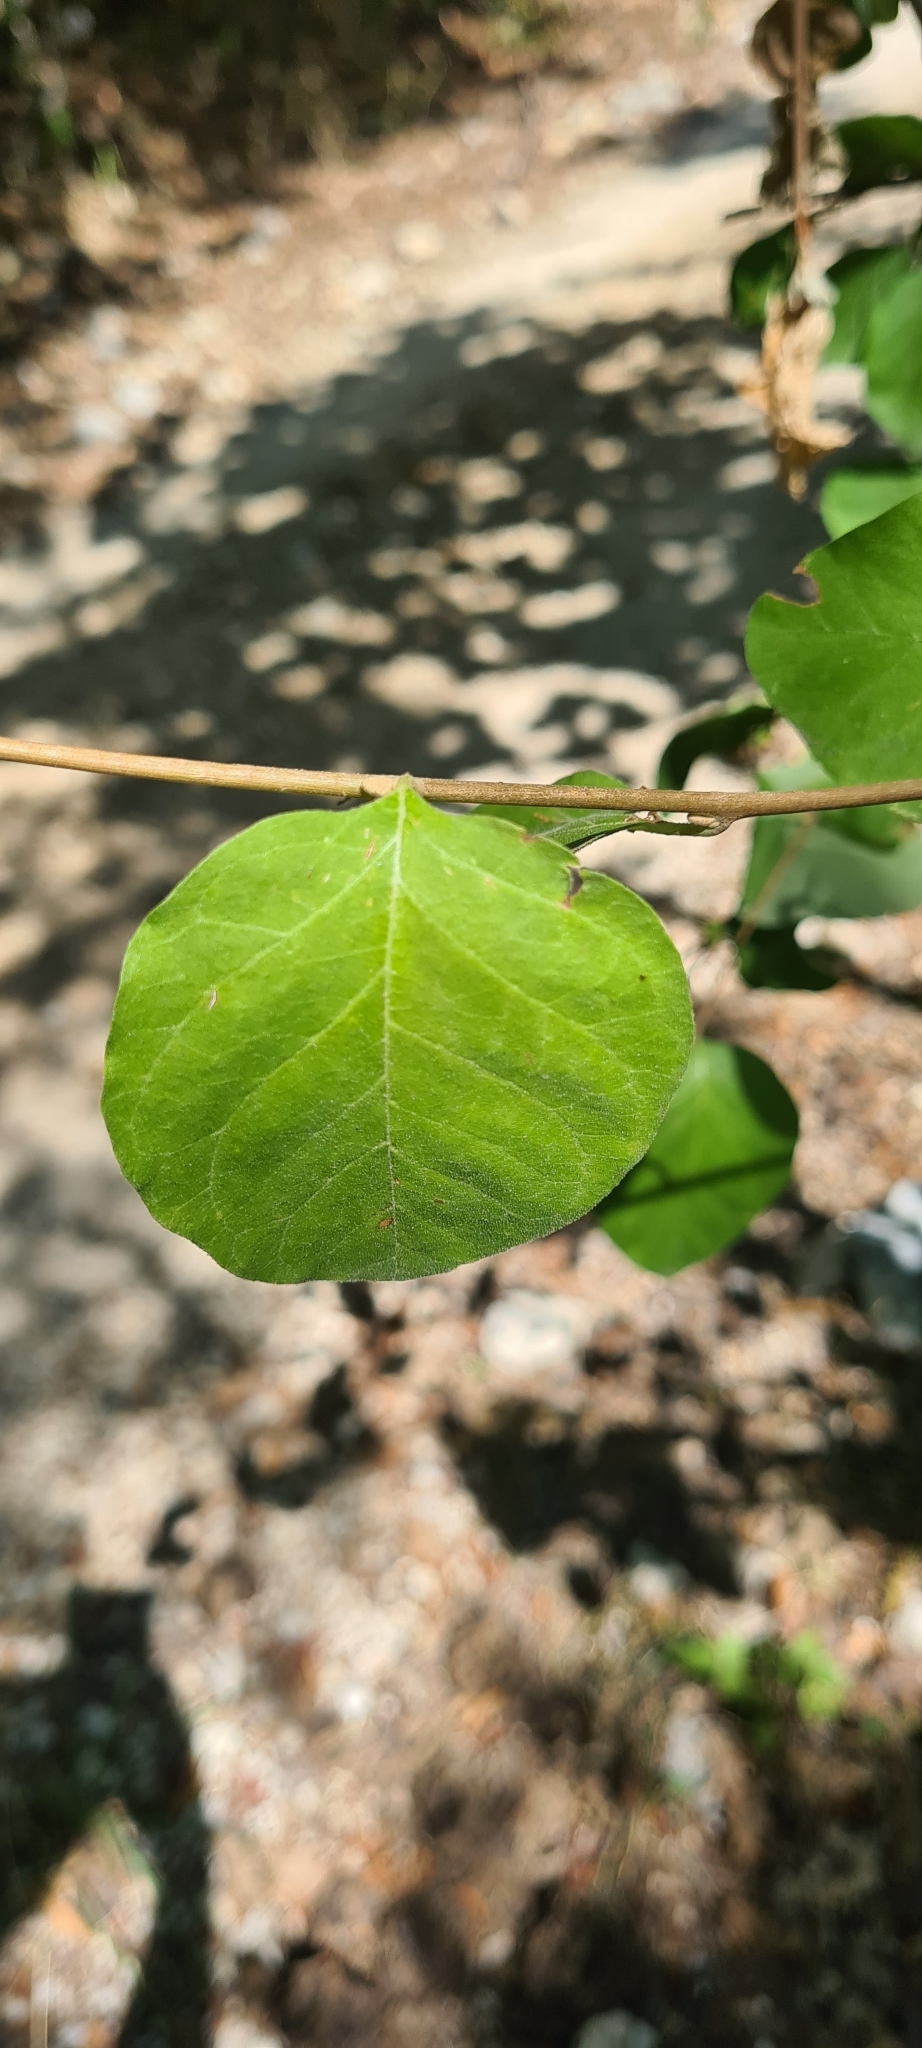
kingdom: Plantae
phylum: Tracheophyta
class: Magnoliopsida
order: Ericales
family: Styracaceae
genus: Styrax
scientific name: Styrax officinalis
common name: Storax
